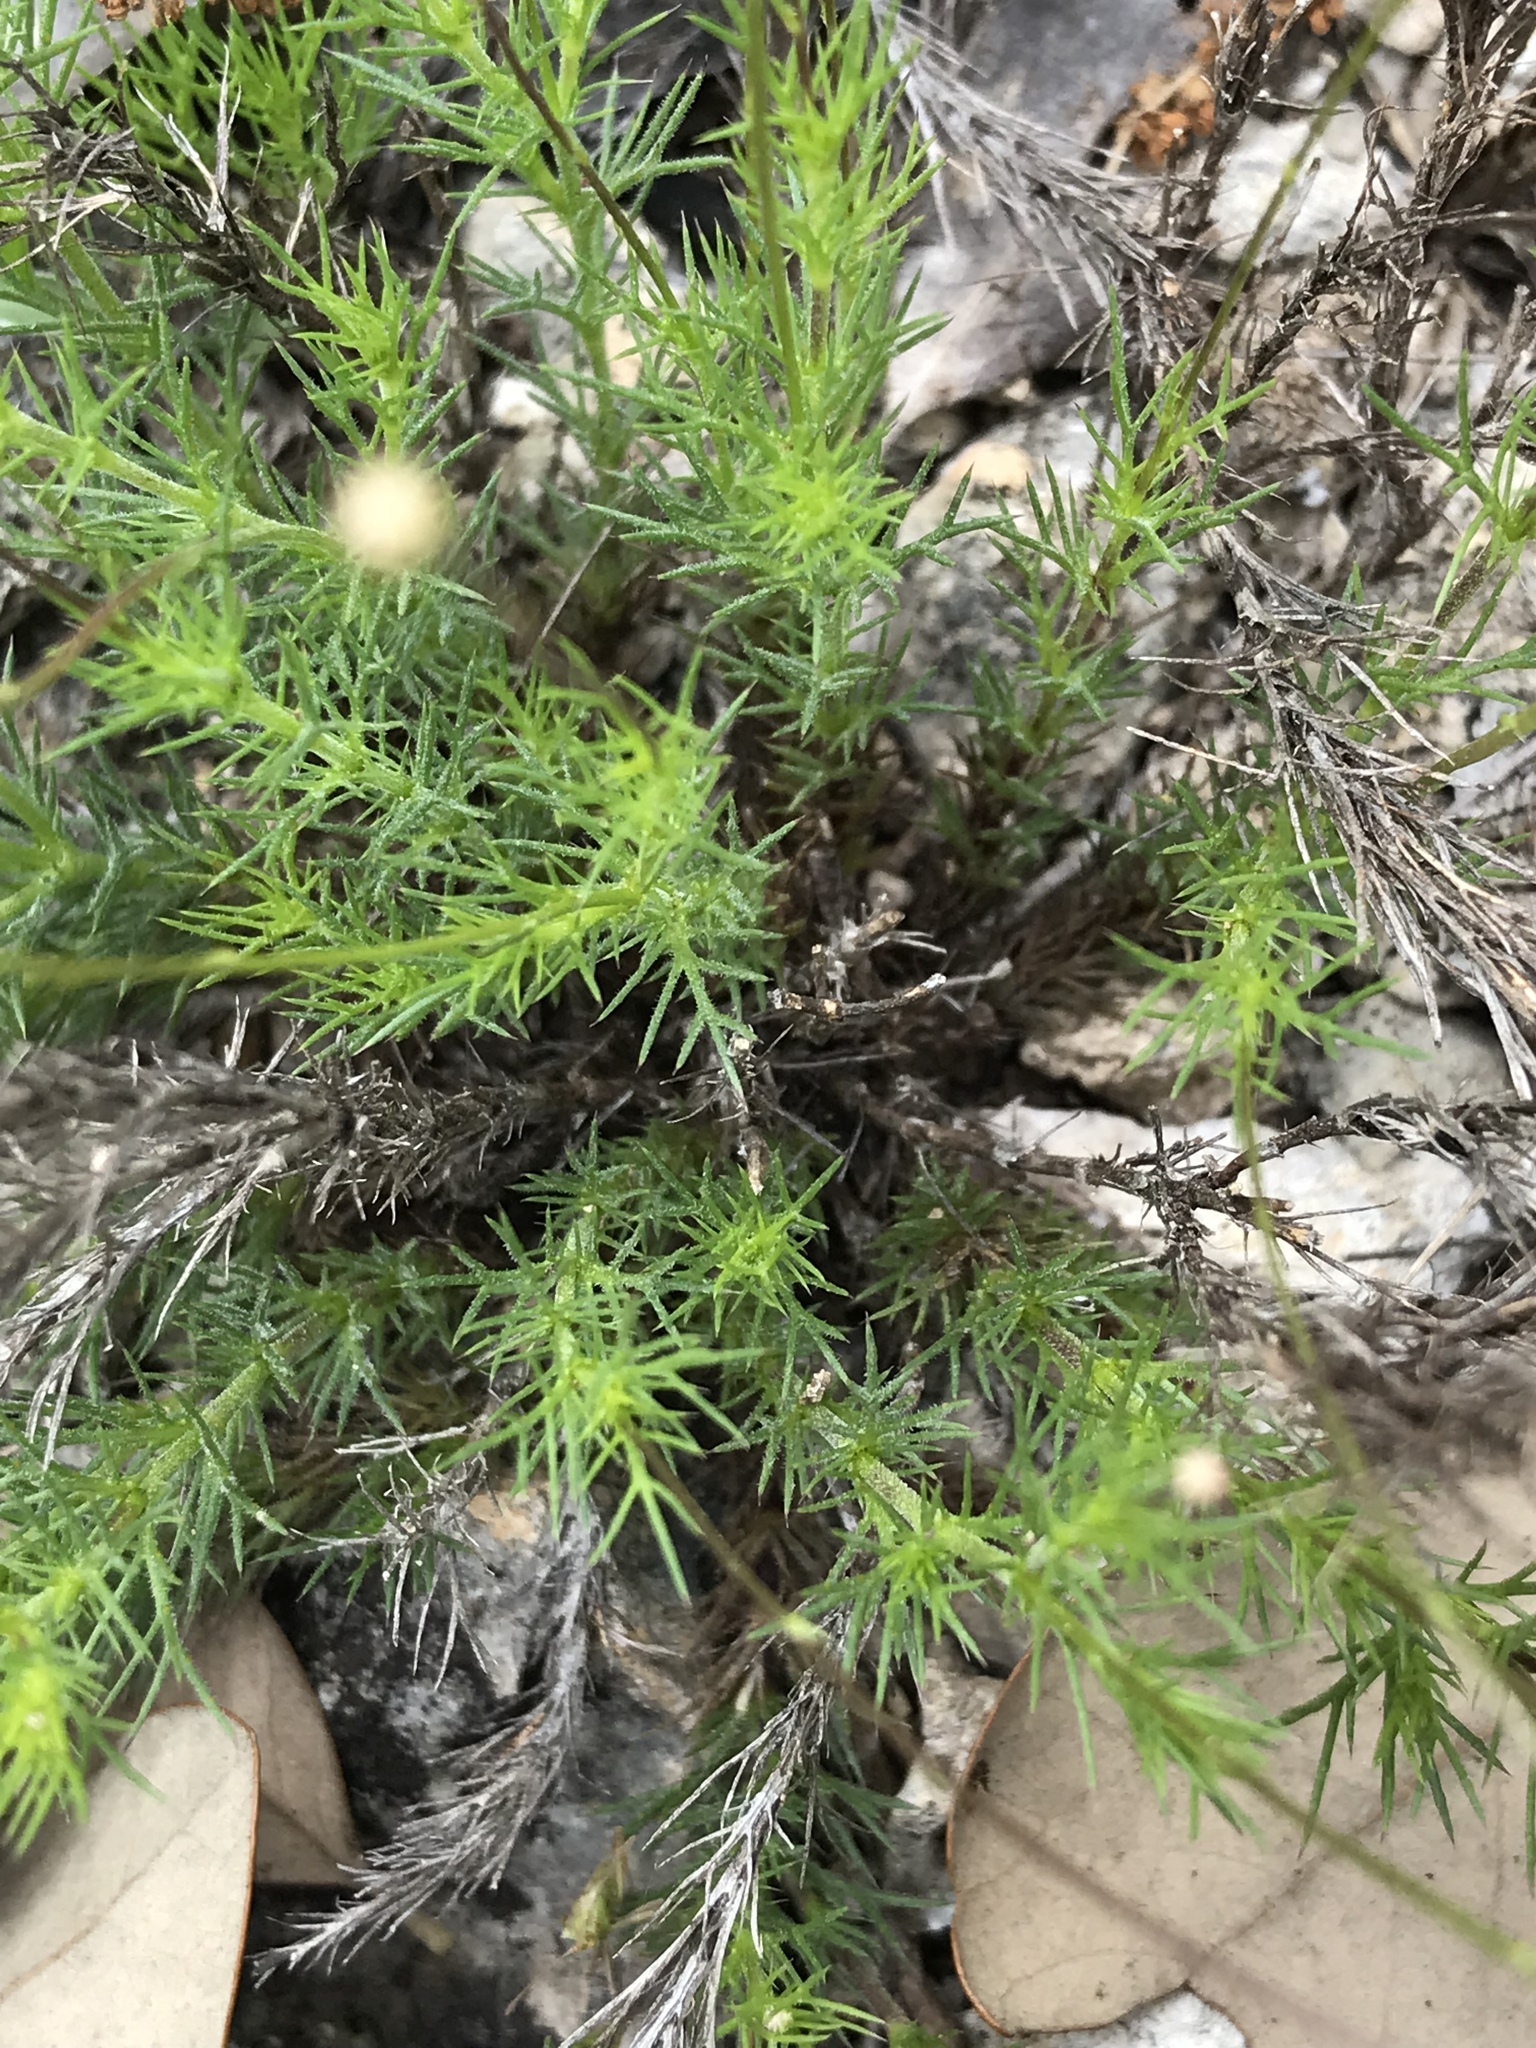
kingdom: Plantae
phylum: Tracheophyta
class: Magnoliopsida
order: Asterales
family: Asteraceae
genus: Thymophylla
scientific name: Thymophylla tenuiloba
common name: Dahlberg's daisy
